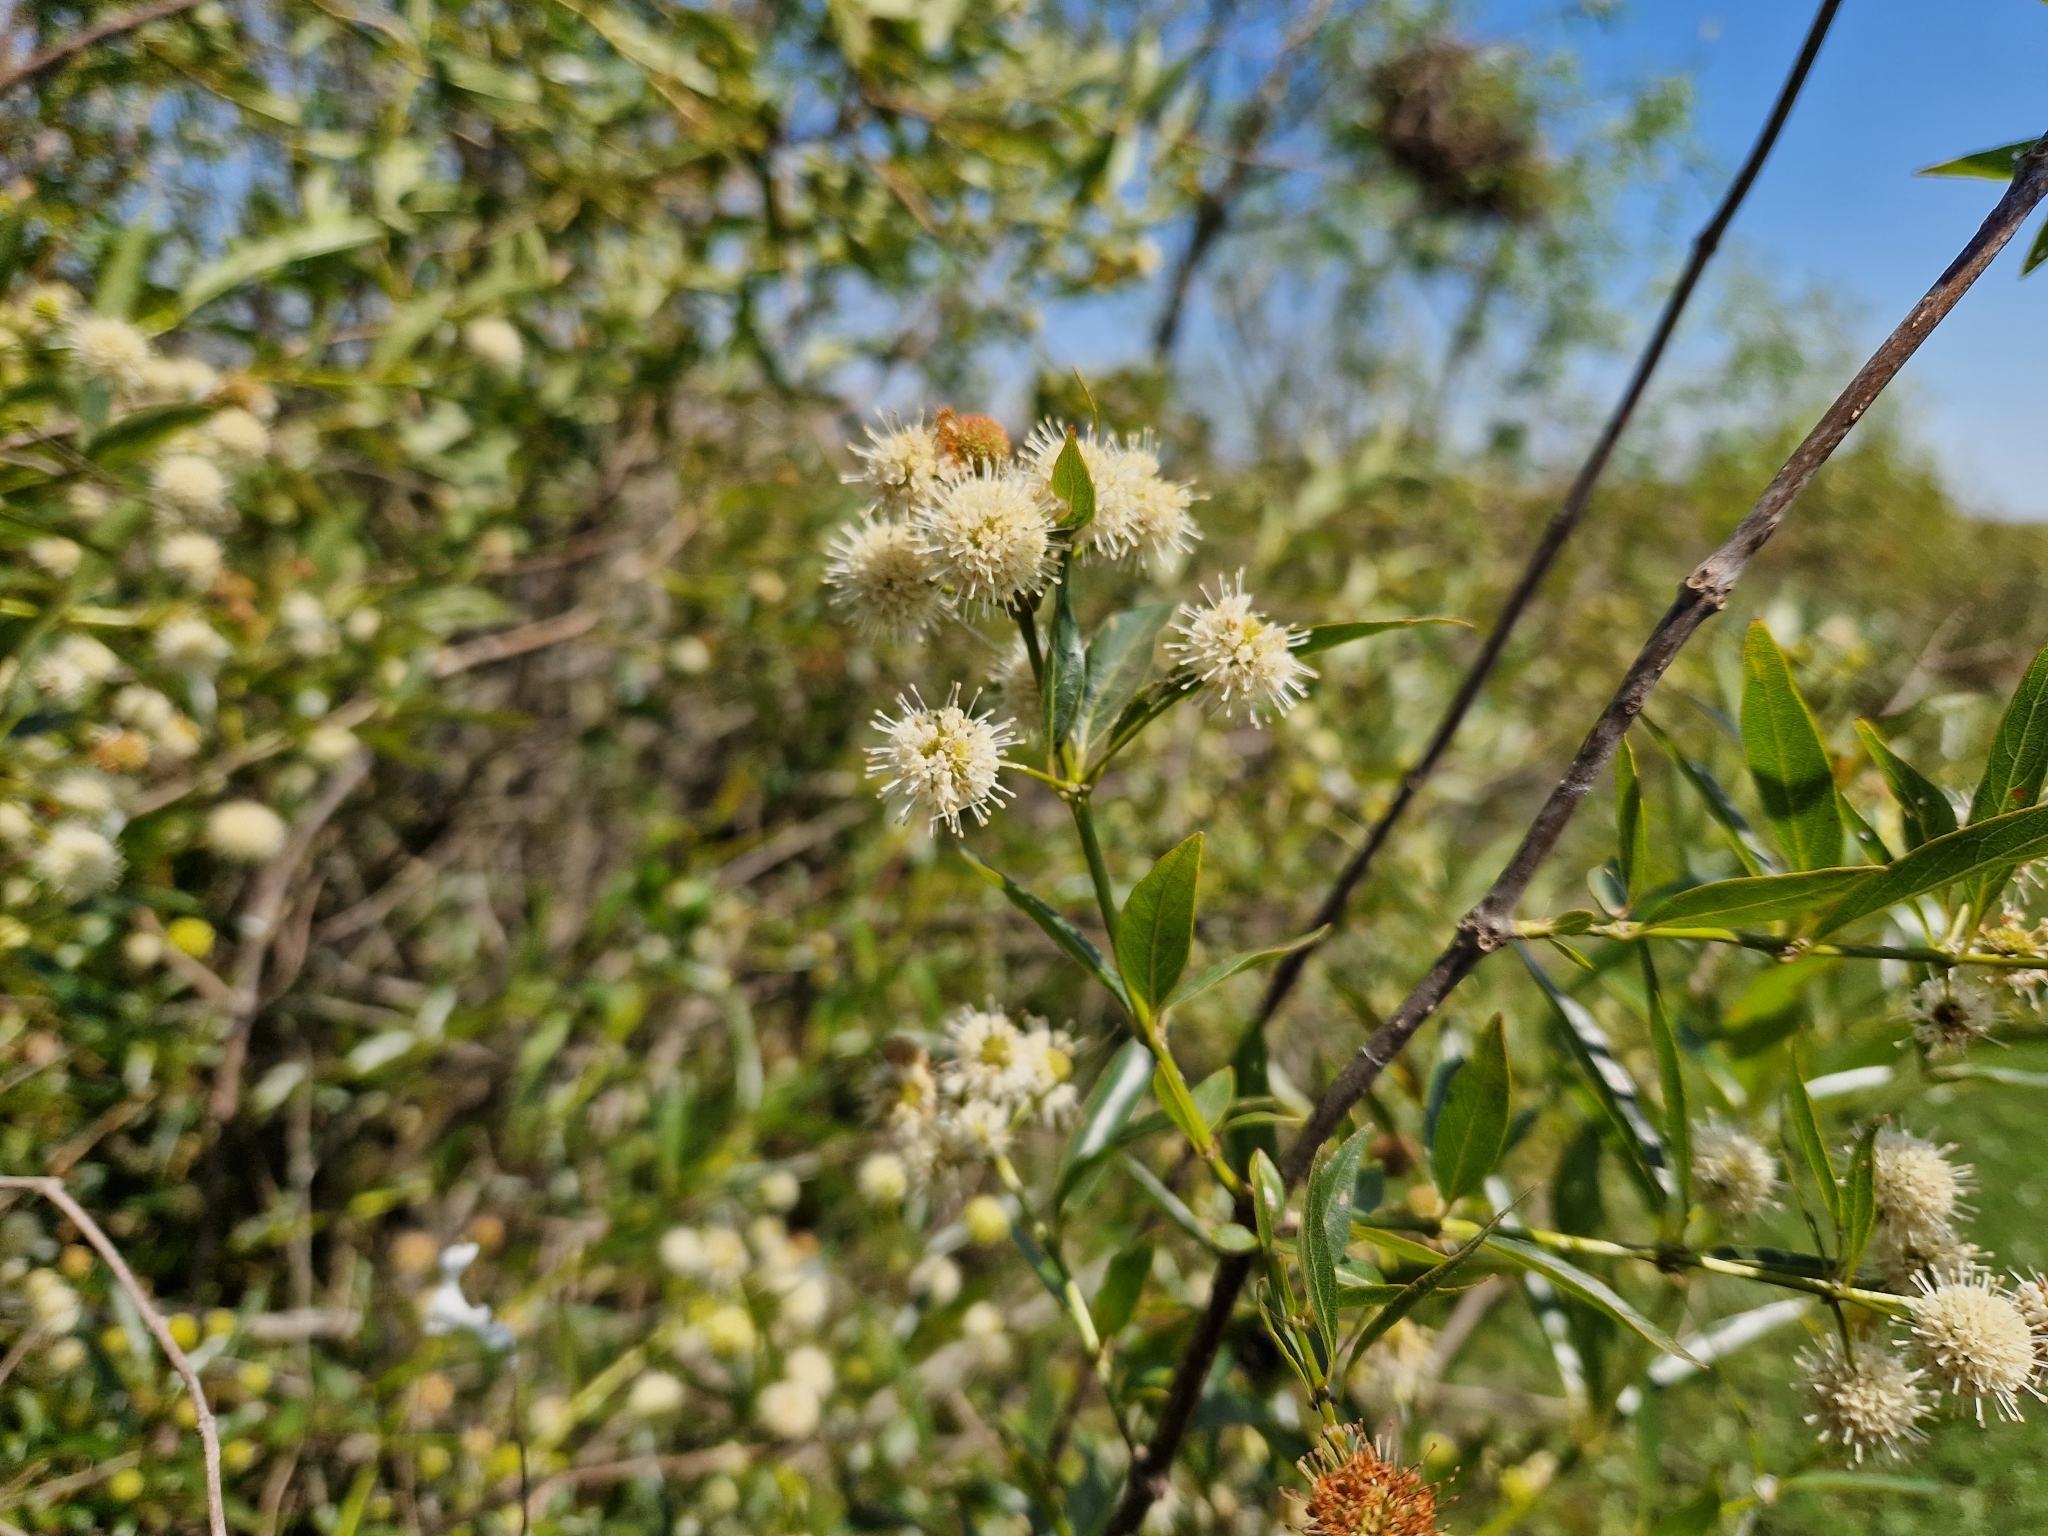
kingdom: Plantae
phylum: Tracheophyta
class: Magnoliopsida
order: Gentianales
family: Rubiaceae
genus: Cephalanthus
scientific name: Cephalanthus glabratus
